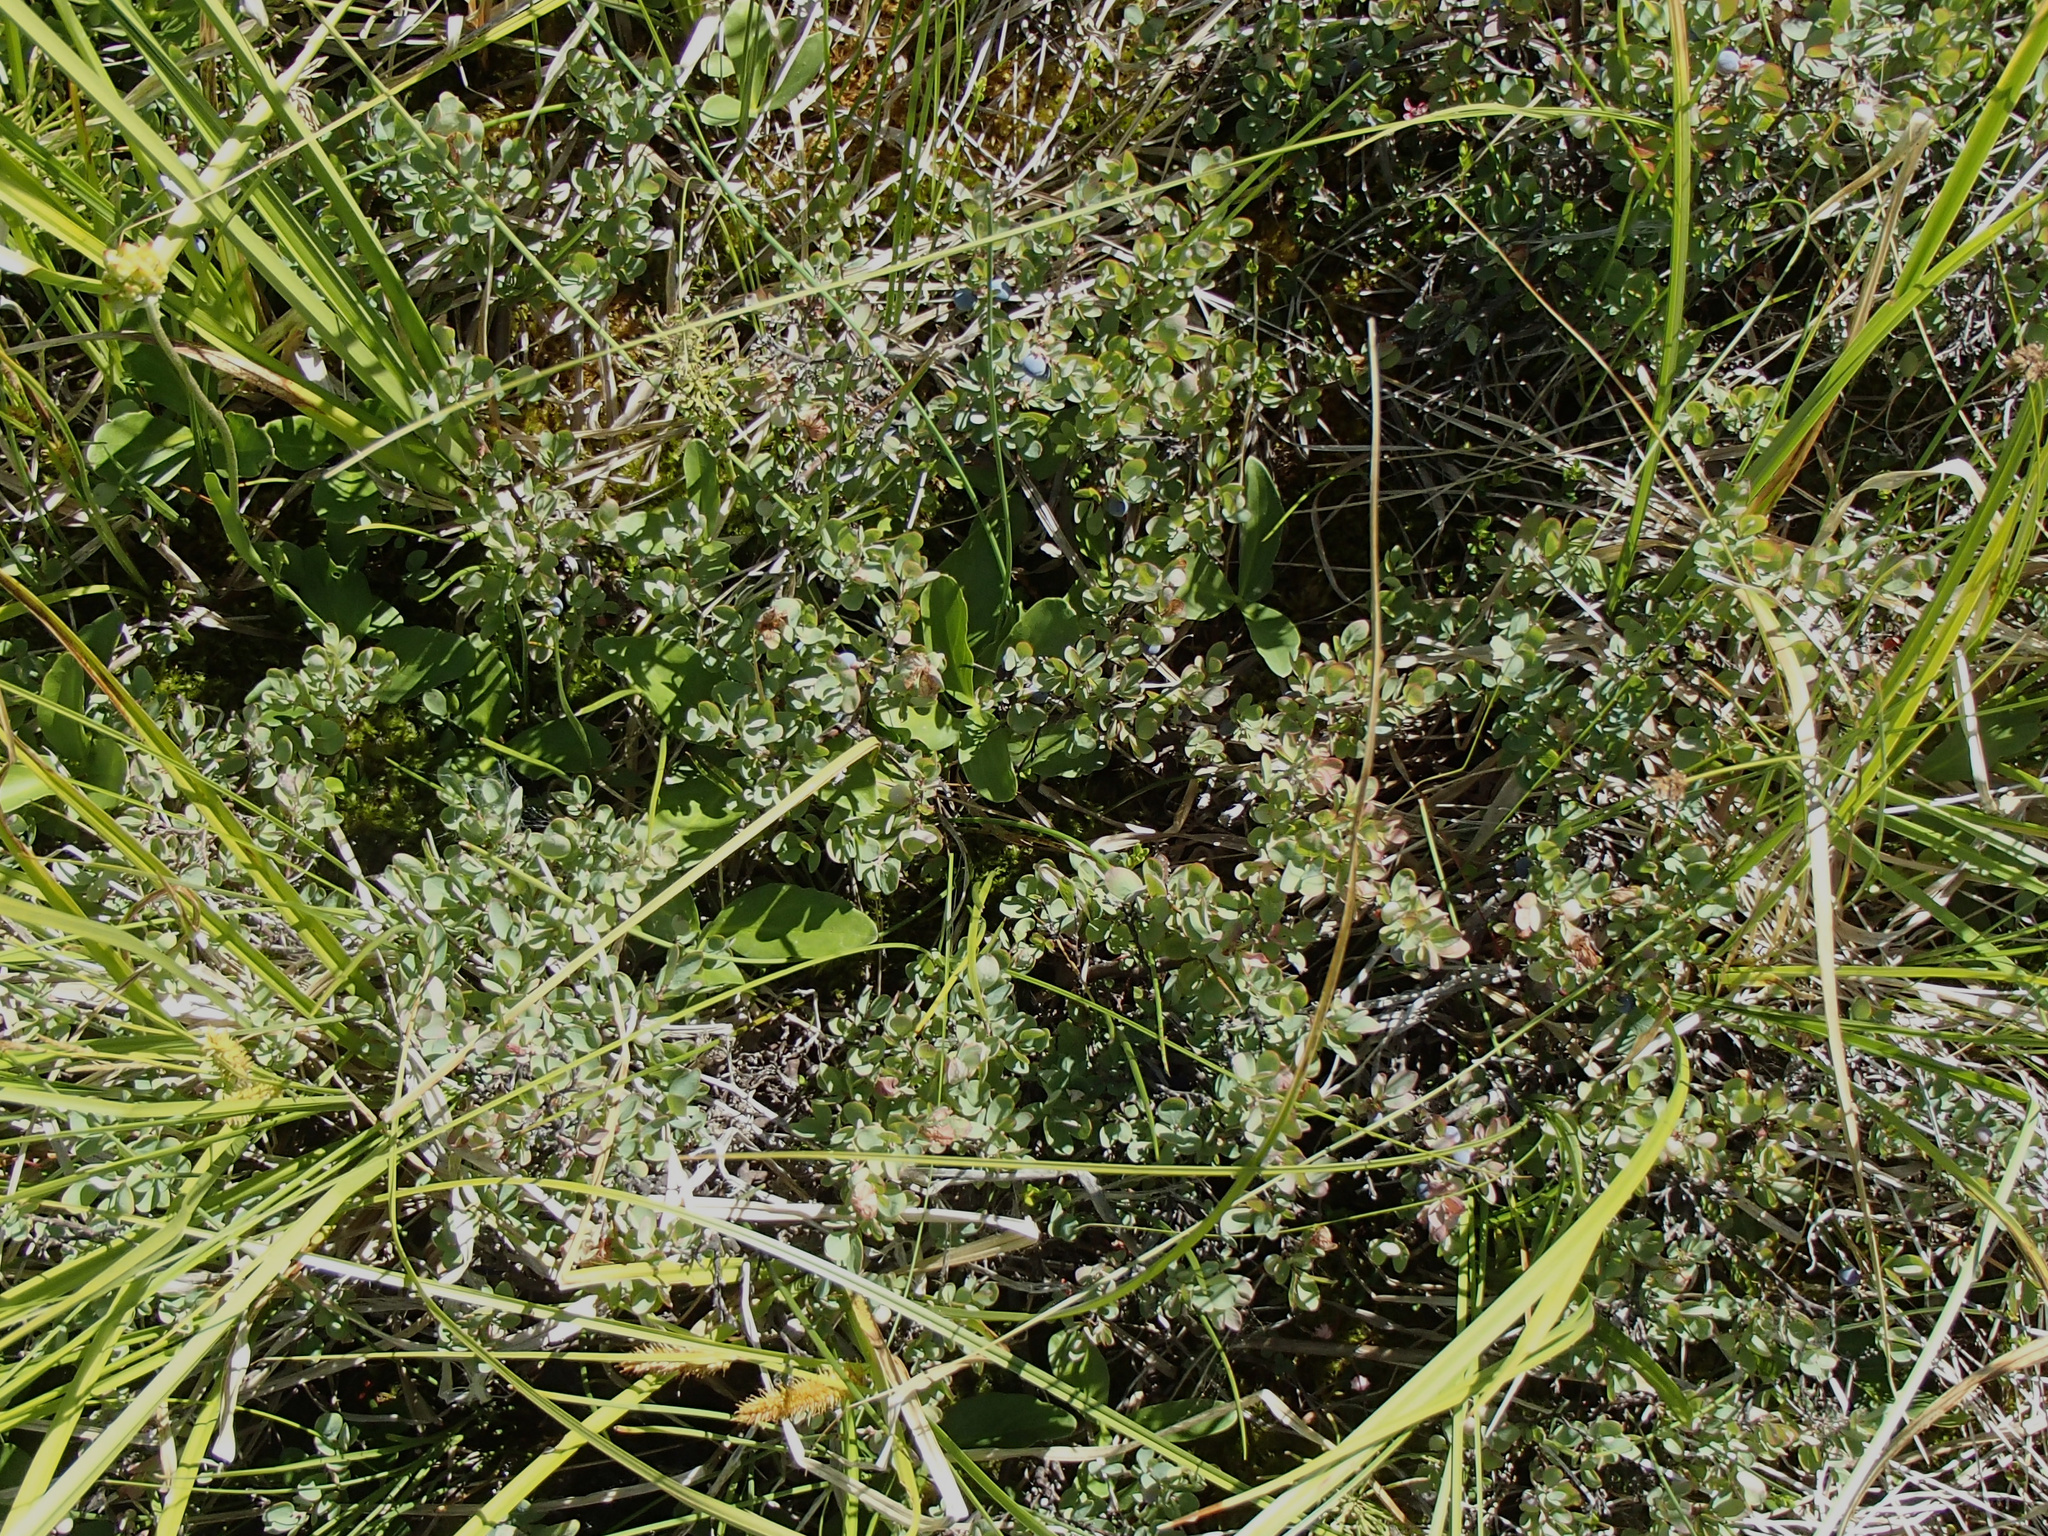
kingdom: Plantae
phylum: Tracheophyta
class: Magnoliopsida
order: Ericales
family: Ericaceae
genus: Vaccinium
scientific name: Vaccinium uliginosum
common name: Bog bilberry
